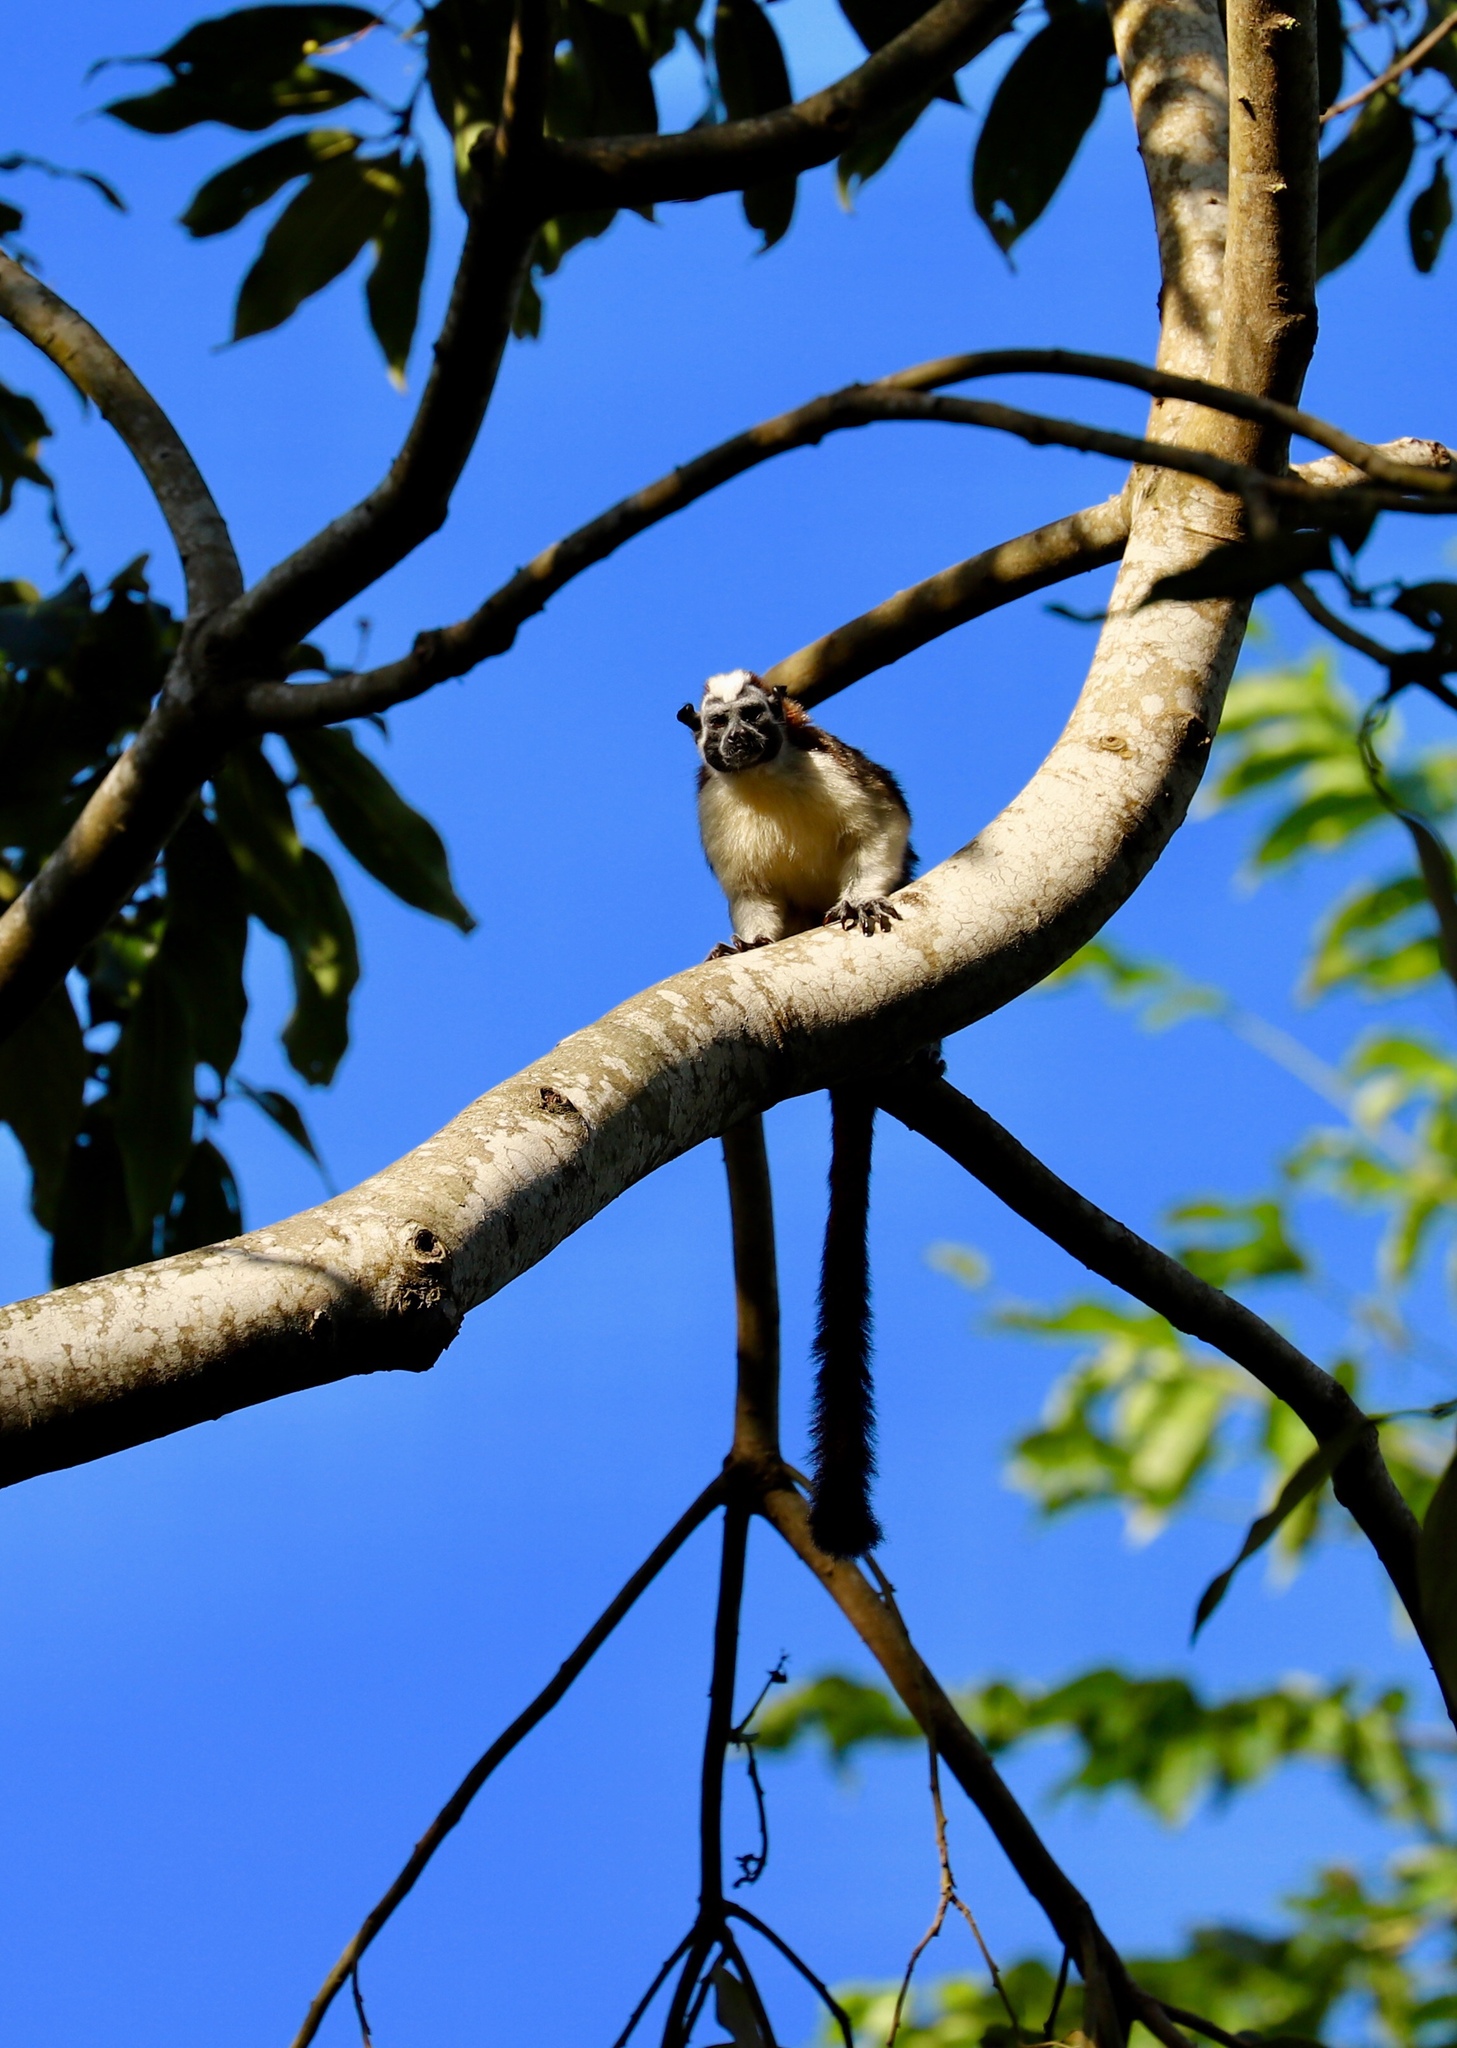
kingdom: Animalia
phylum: Chordata
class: Mammalia
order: Primates
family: Callitrichidae
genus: Saguinus
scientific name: Saguinus geoffroyi
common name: Geoffroy s tamarin
